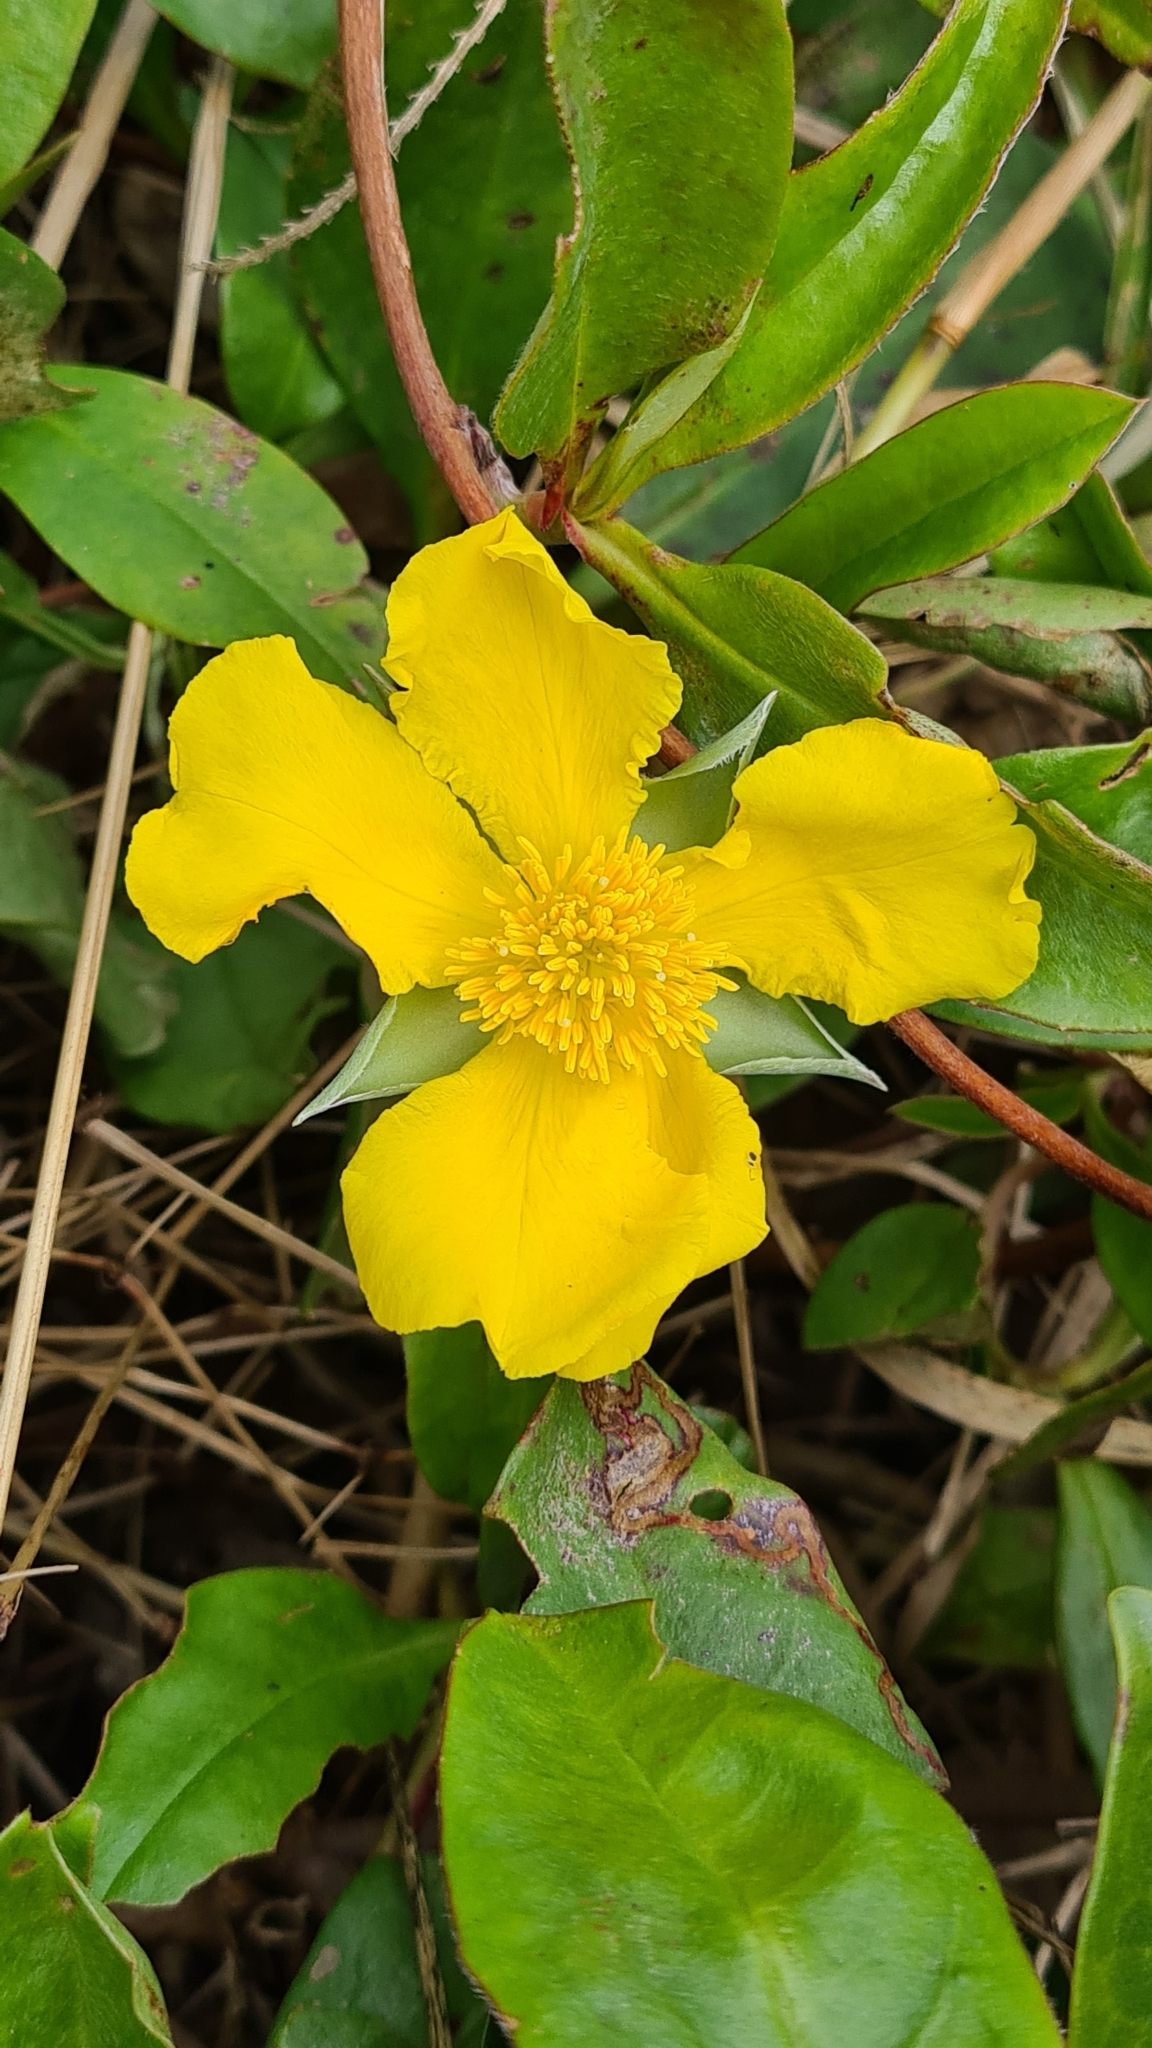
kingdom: Plantae
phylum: Tracheophyta
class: Magnoliopsida
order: Dilleniales
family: Dilleniaceae
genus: Hibbertia
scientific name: Hibbertia scandens
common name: Climbing guinea-flower
